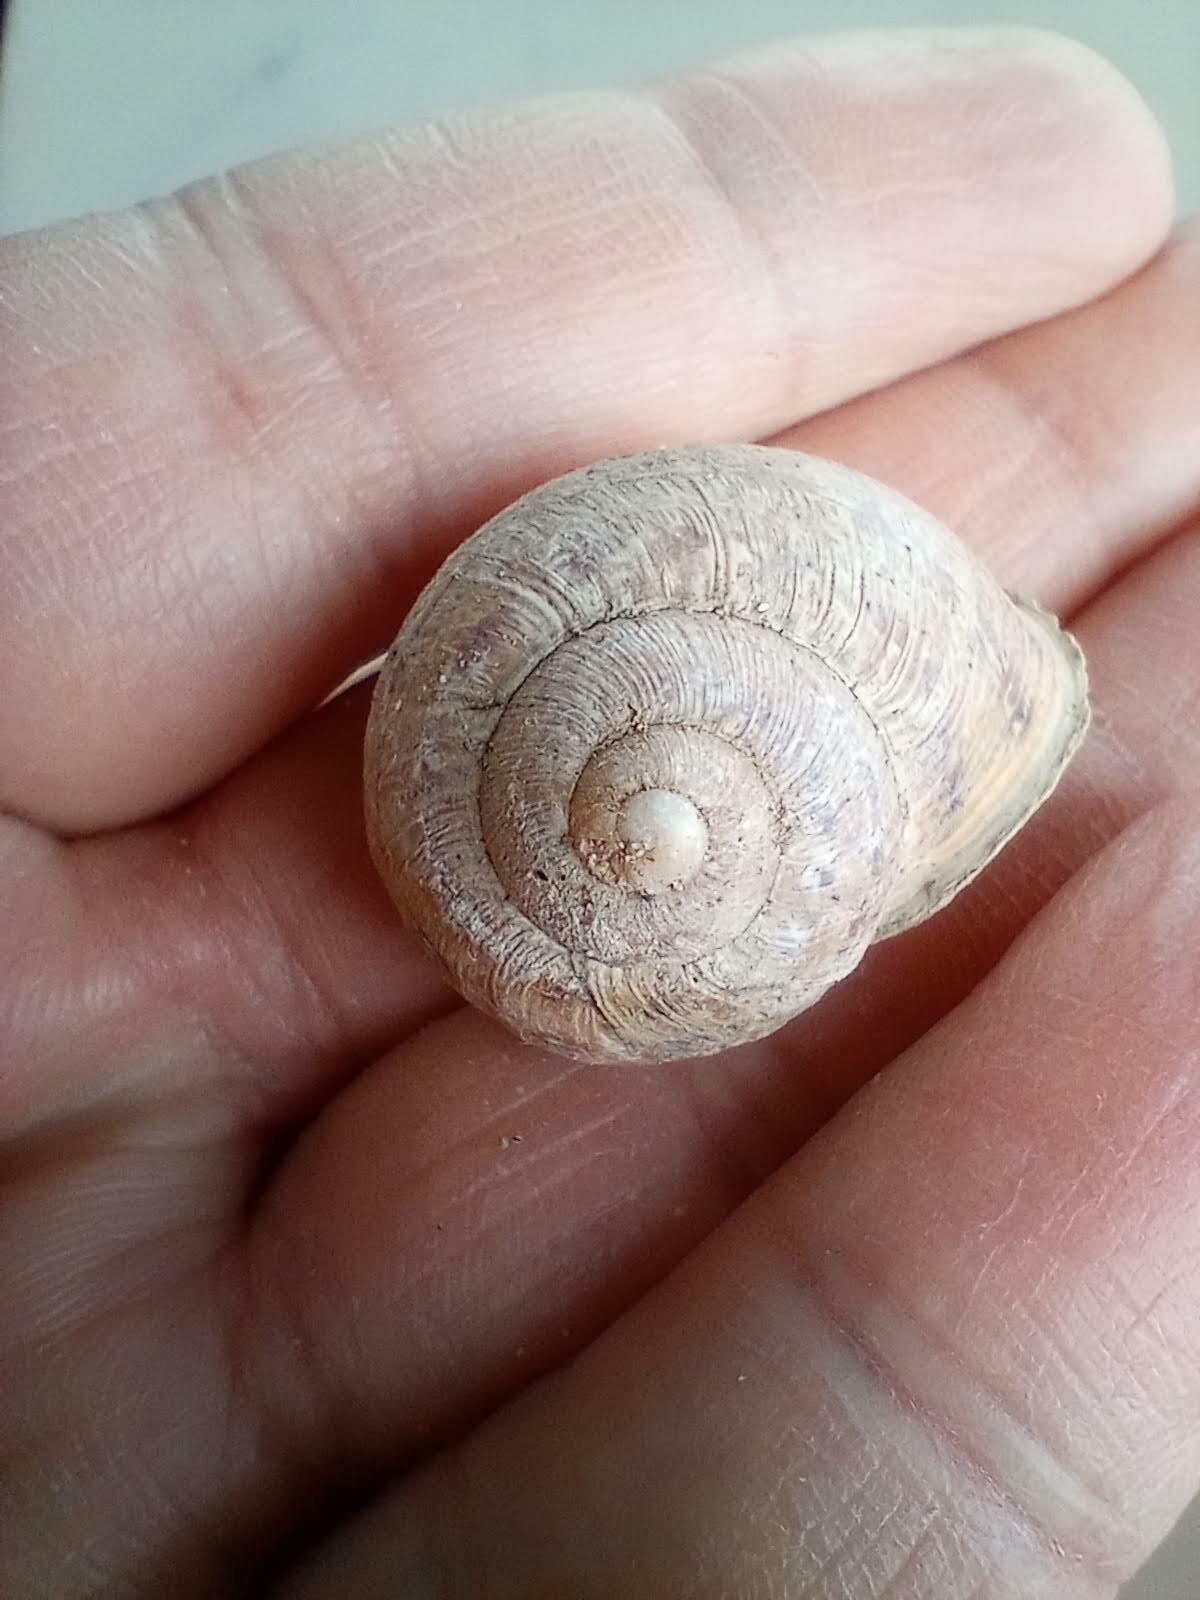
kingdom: Animalia
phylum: Mollusca
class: Gastropoda
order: Stylommatophora
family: Helicidae
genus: Cornu
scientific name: Cornu aspersum
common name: Brown garden snail
